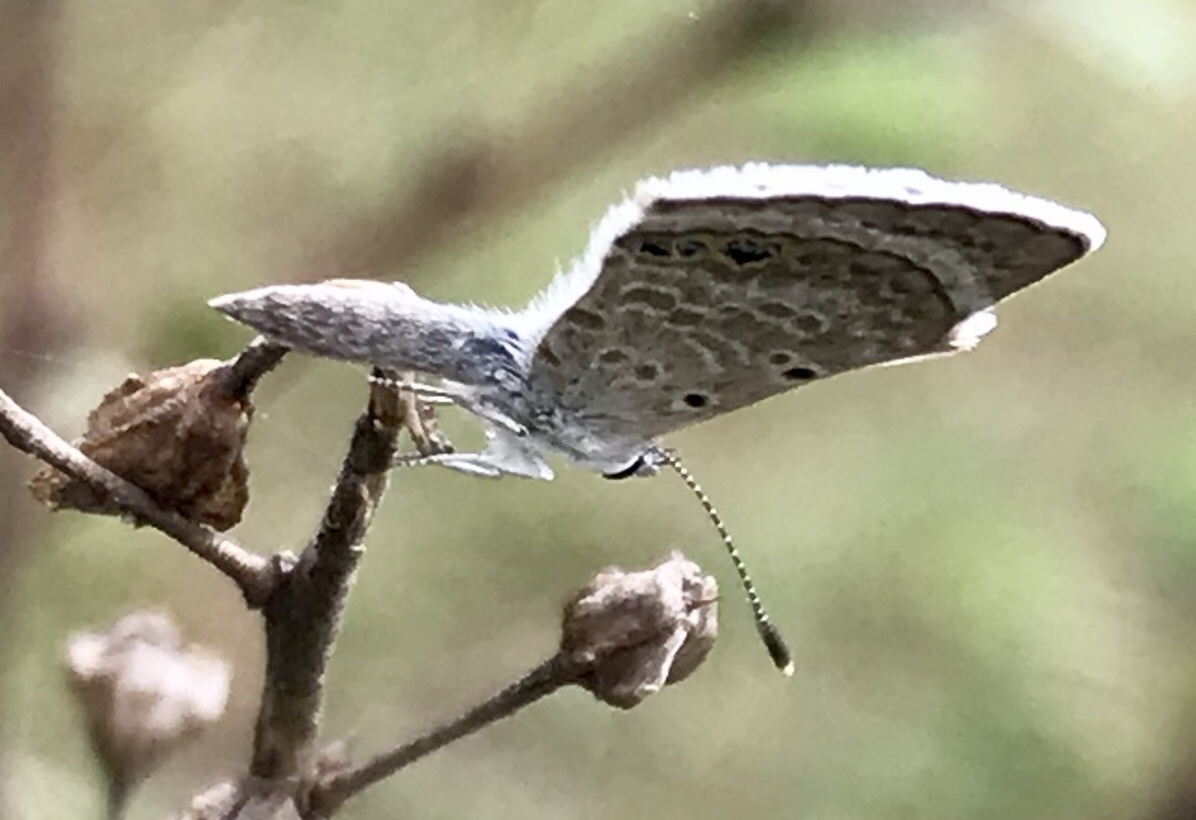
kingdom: Animalia
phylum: Arthropoda
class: Insecta
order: Lepidoptera
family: Lycaenidae
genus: Hemiargus
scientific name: Hemiargus ceraunus
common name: Ceraunus blue
